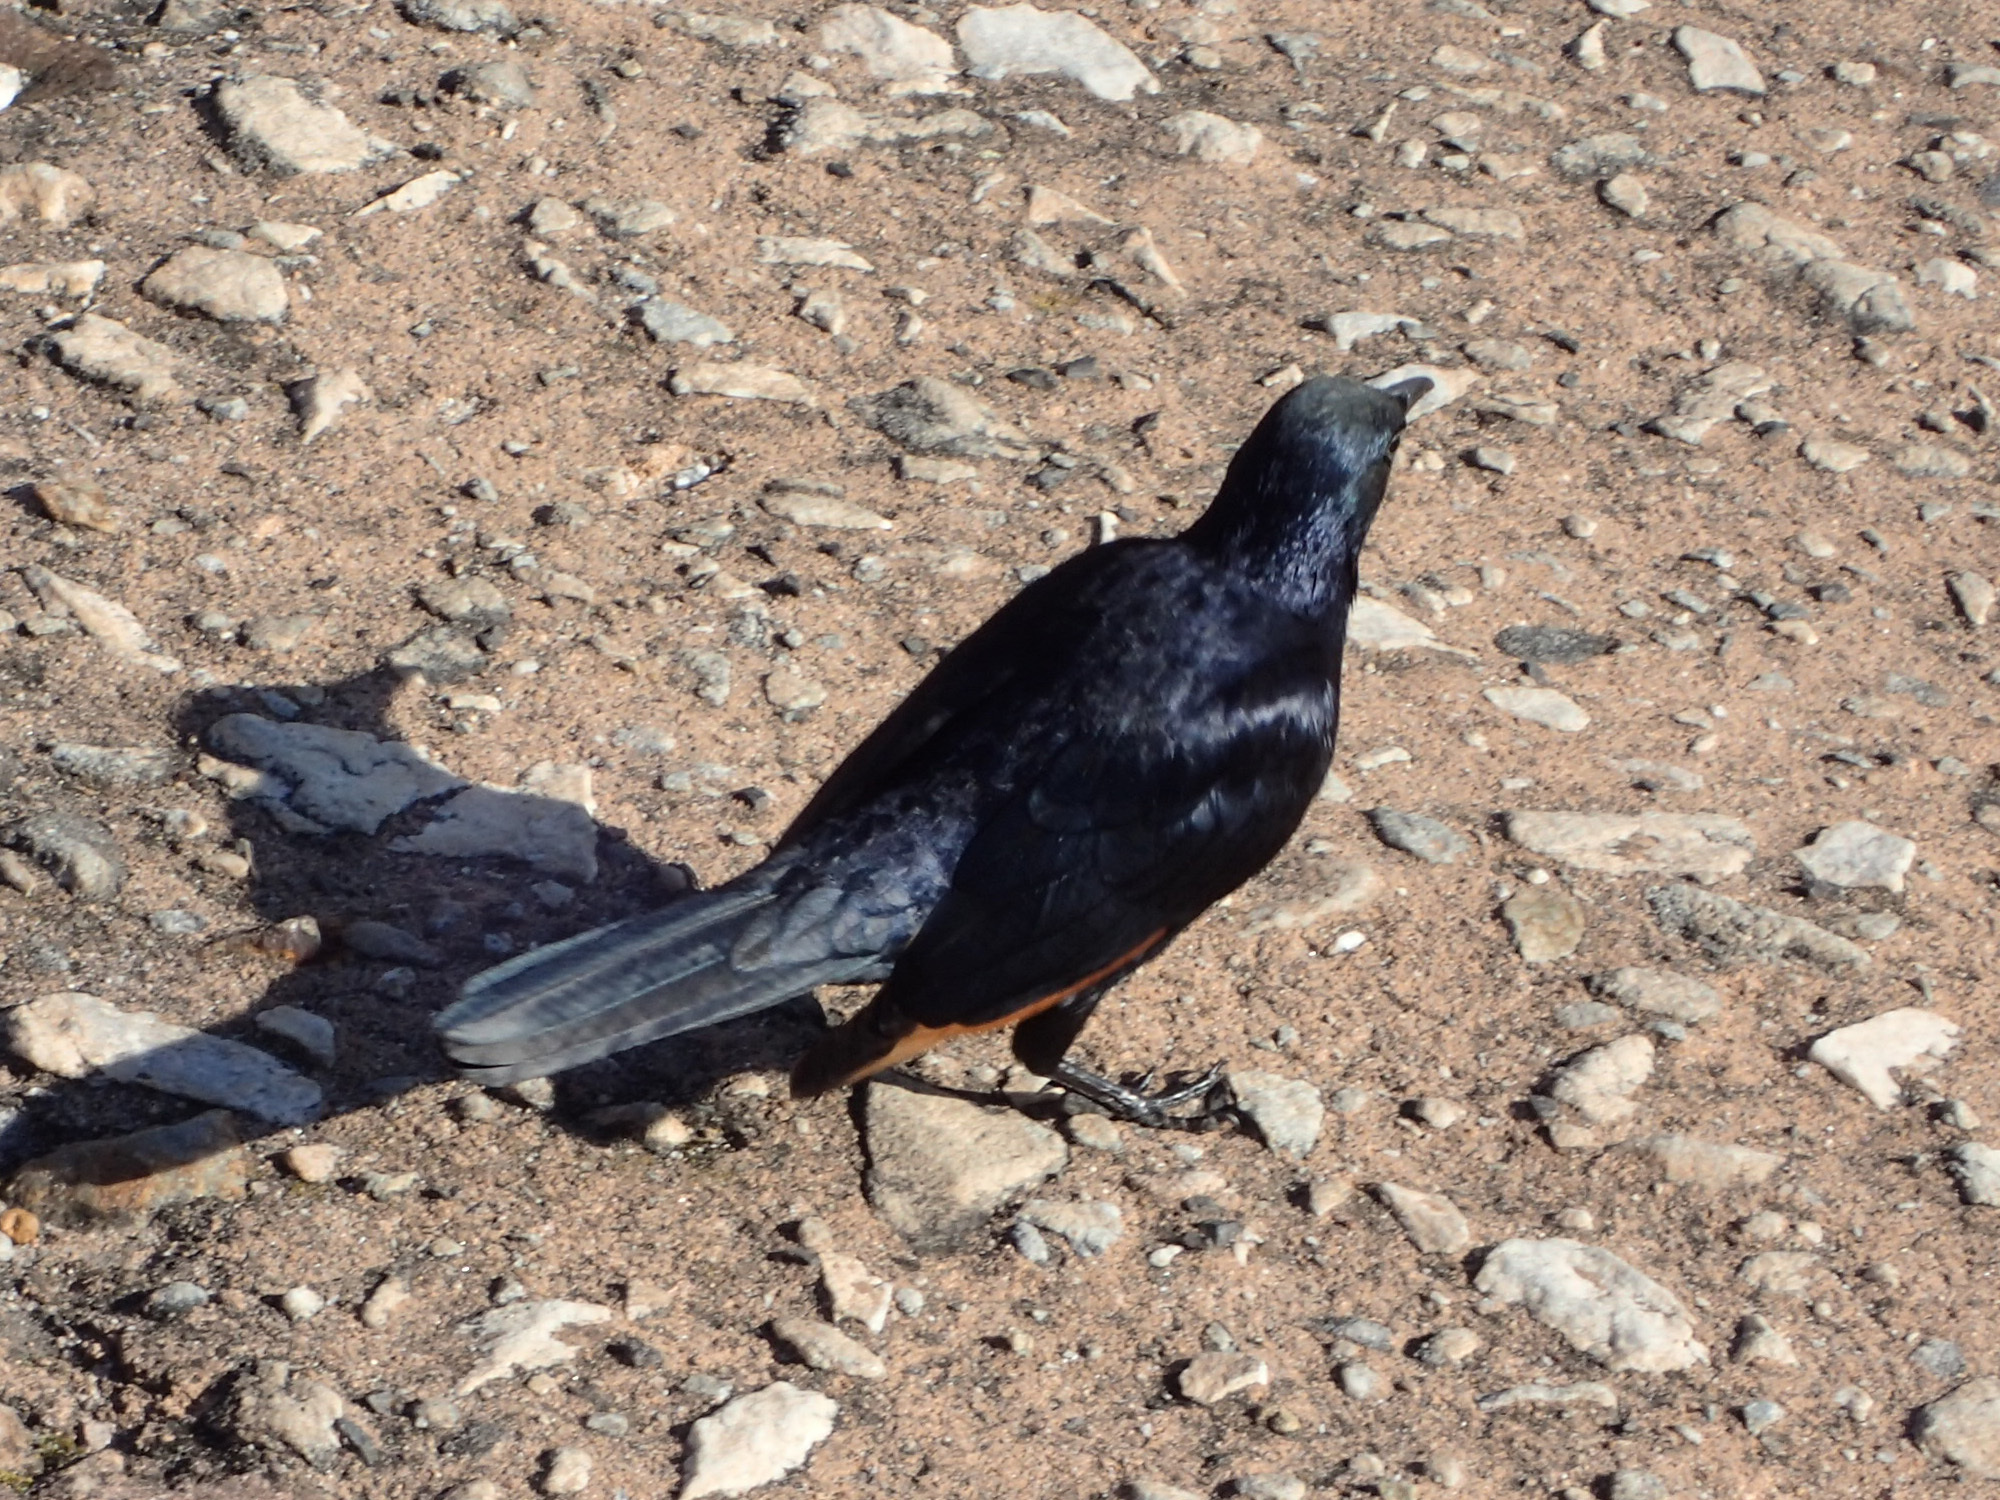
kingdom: Animalia
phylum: Chordata
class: Aves
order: Passeriformes
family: Sturnidae
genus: Onychognathus
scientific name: Onychognathus morio
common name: Red-winged starling
